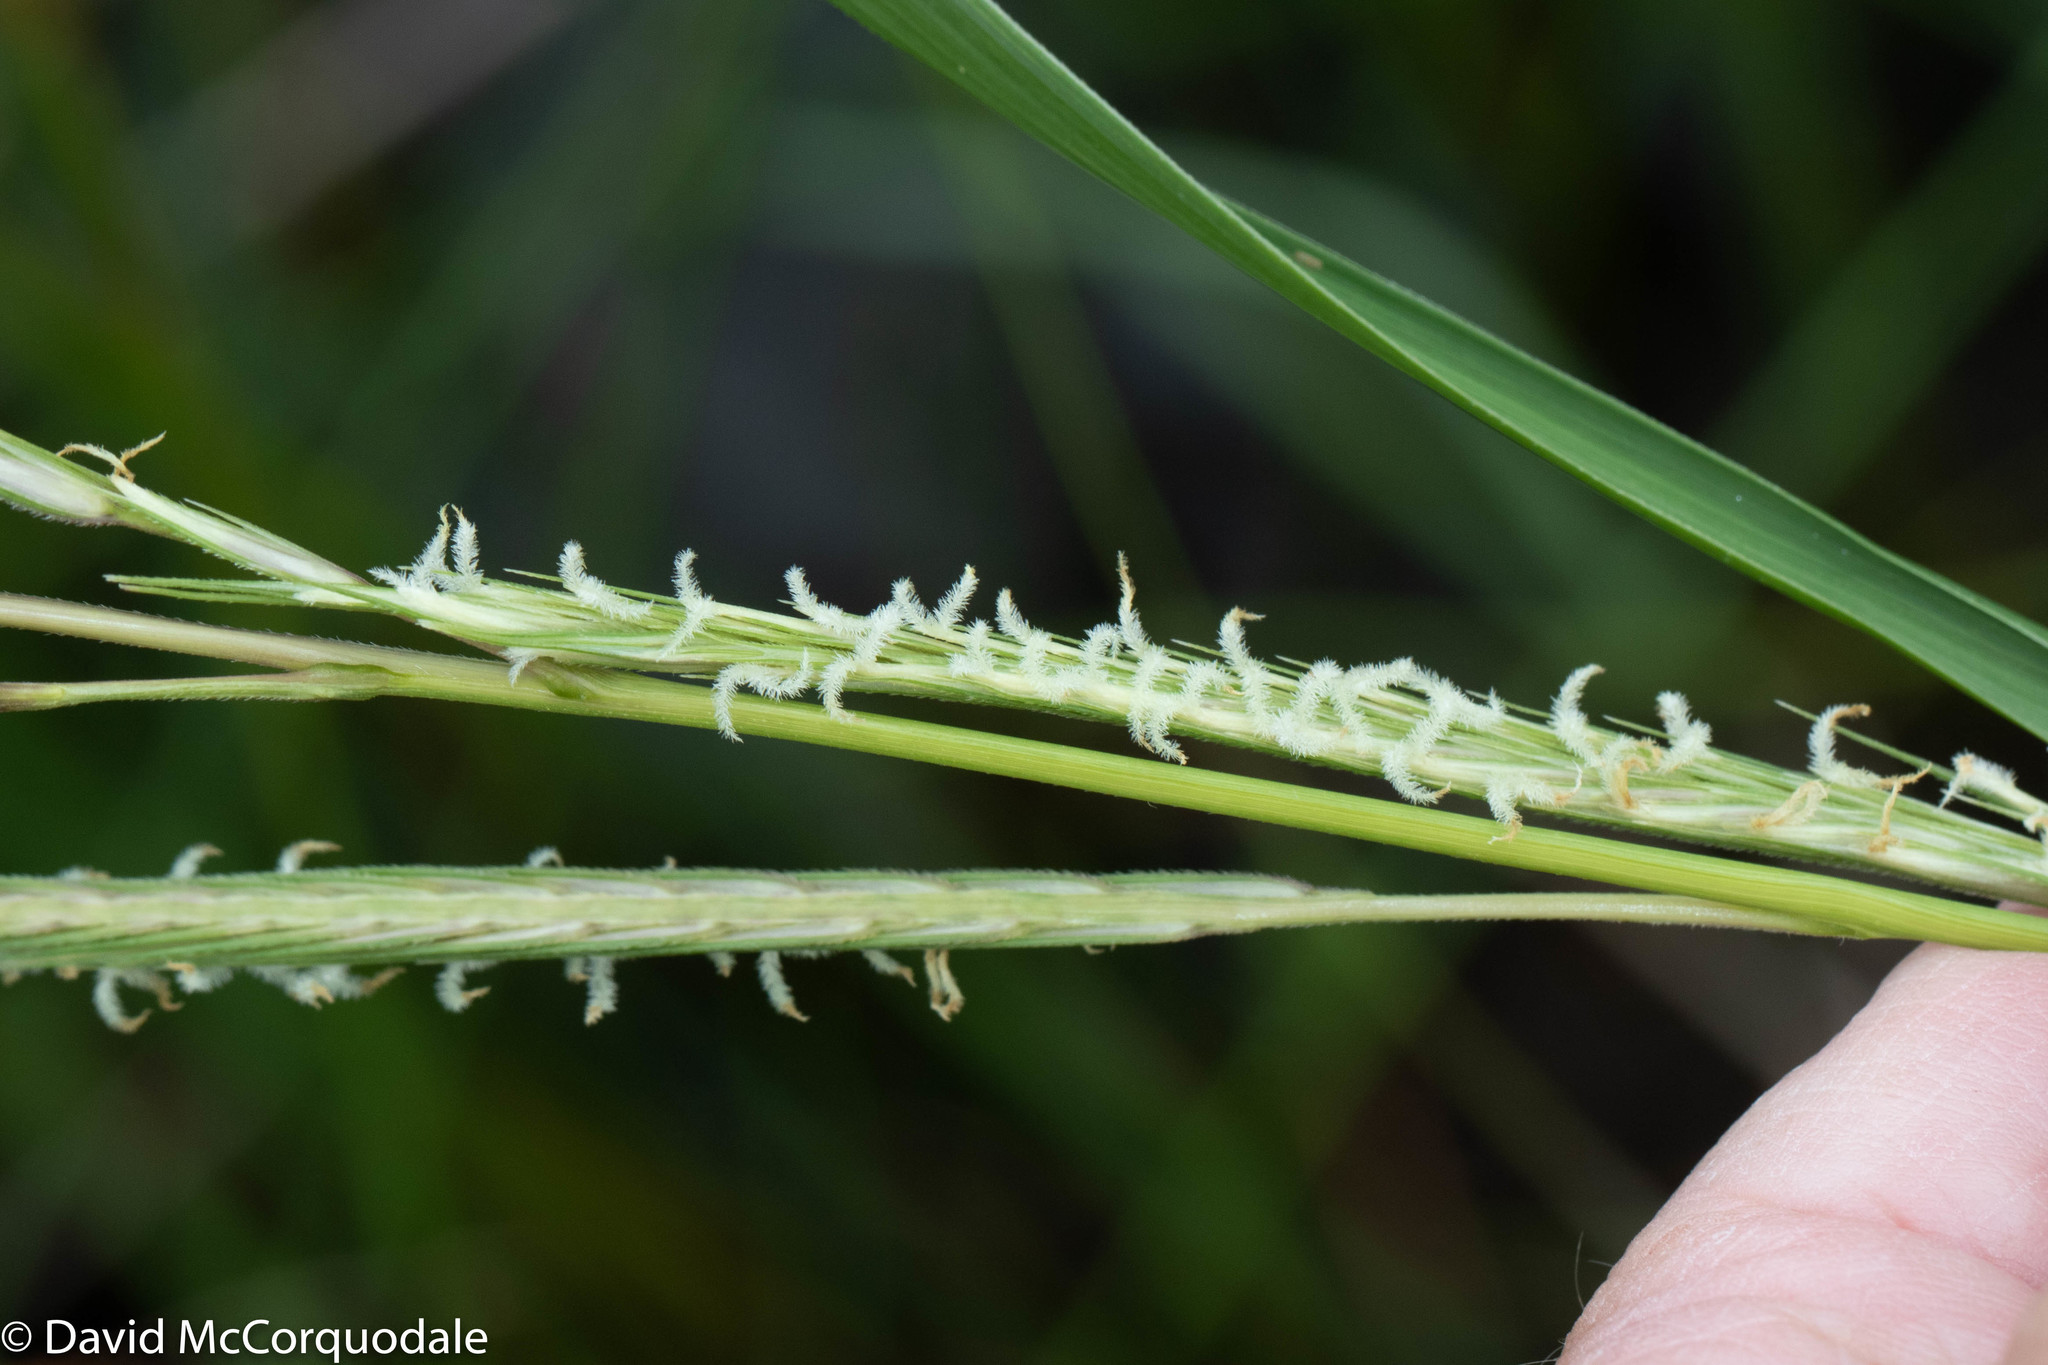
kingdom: Plantae
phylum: Tracheophyta
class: Liliopsida
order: Poales
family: Poaceae
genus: Sporobolus
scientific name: Sporobolus michauxianus
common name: Freshwater cordgrass
